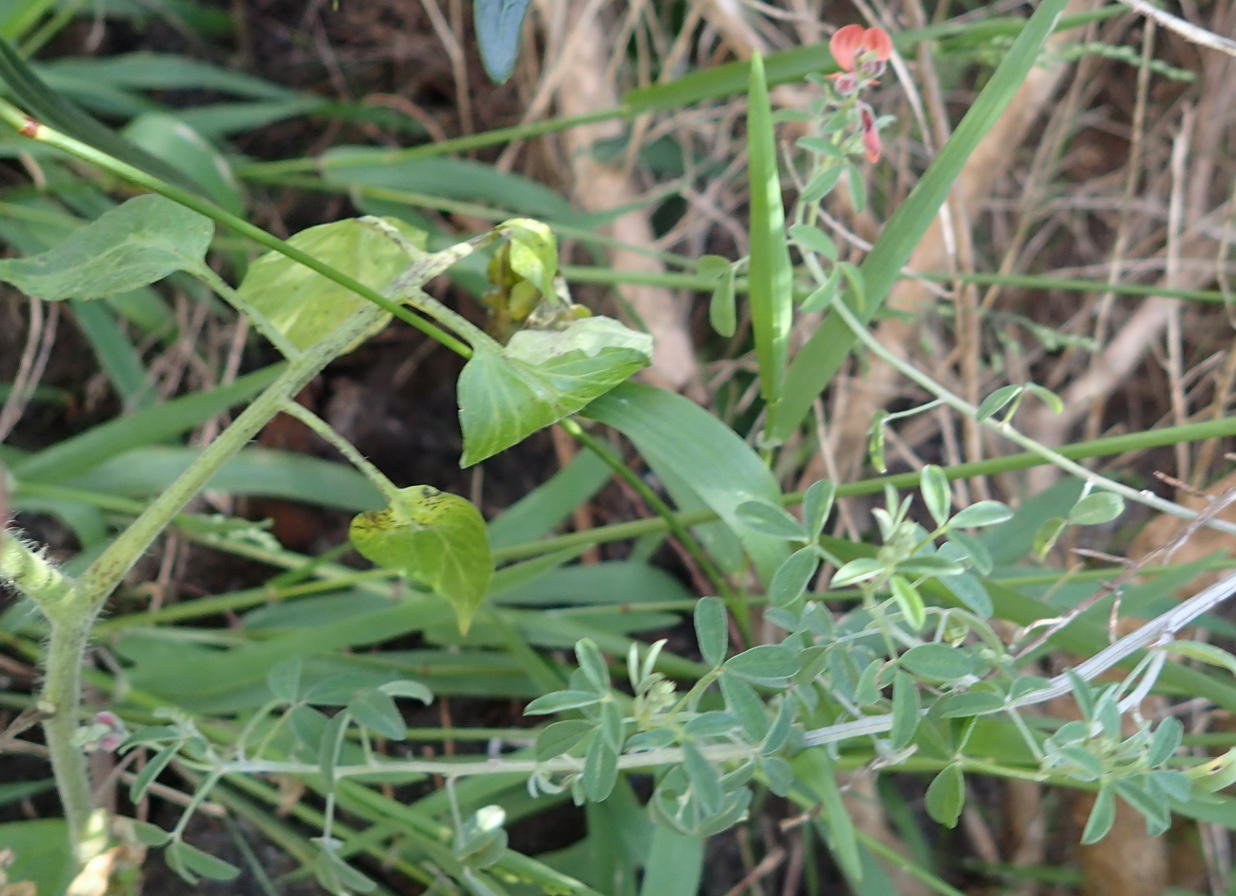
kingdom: Plantae
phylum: Tracheophyta
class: Magnoliopsida
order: Fabales
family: Fabaceae
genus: Indigofera
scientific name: Indigofera candicans
